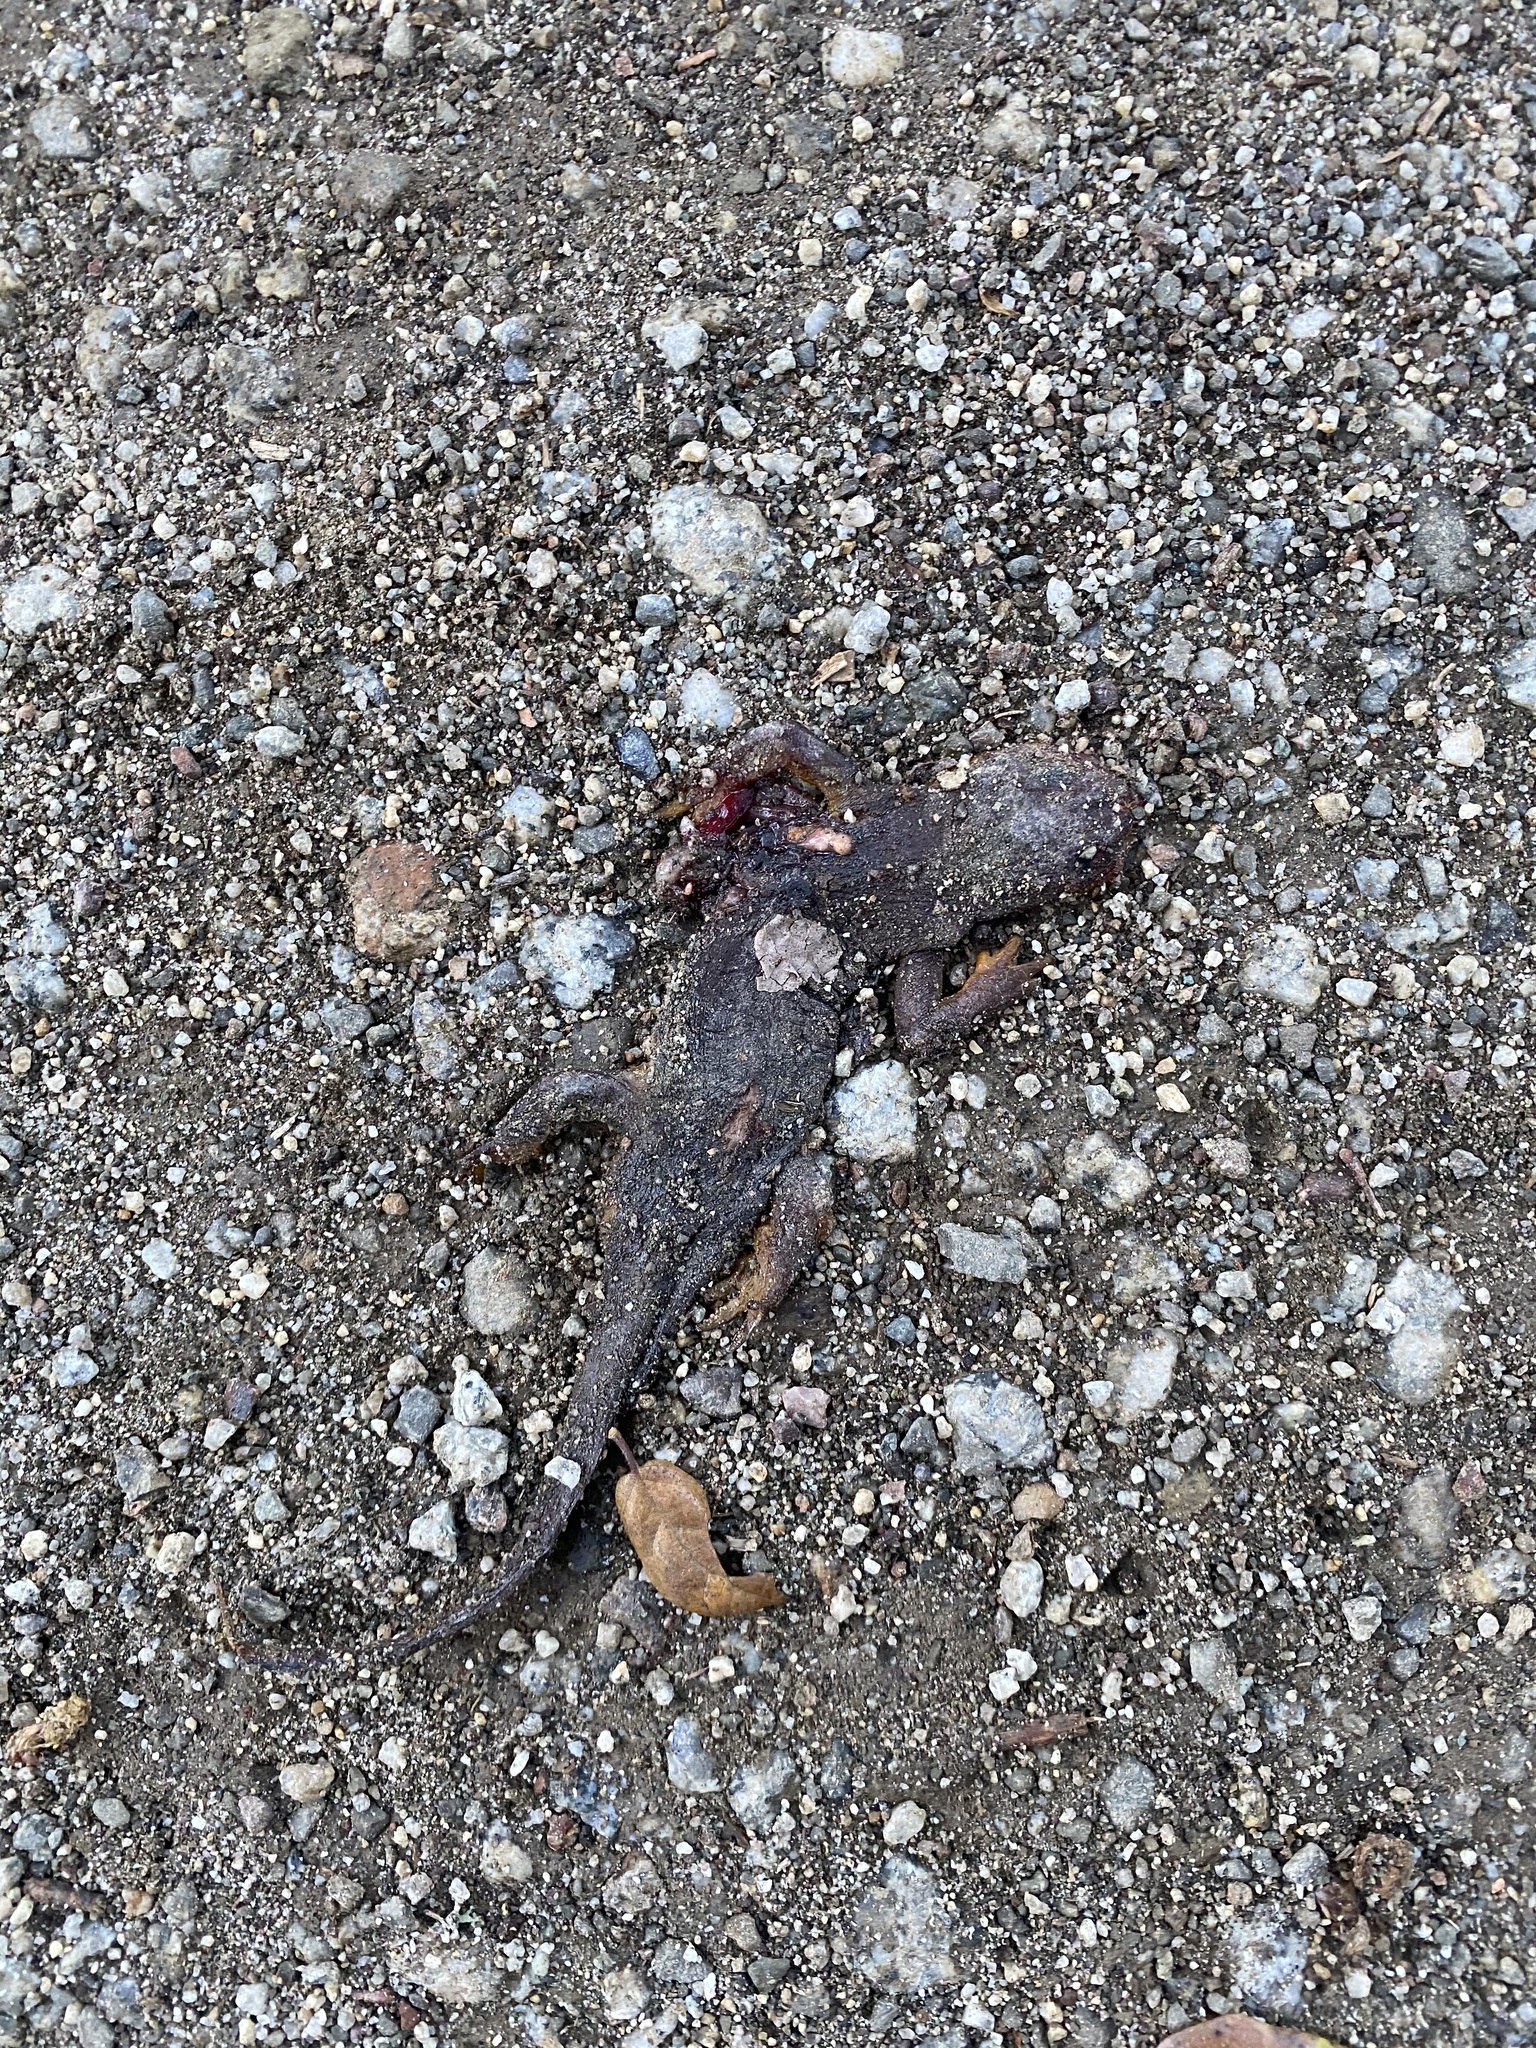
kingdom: Animalia
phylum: Chordata
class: Amphibia
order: Caudata
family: Salamandridae
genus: Taricha
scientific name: Taricha torosa
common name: California newt
